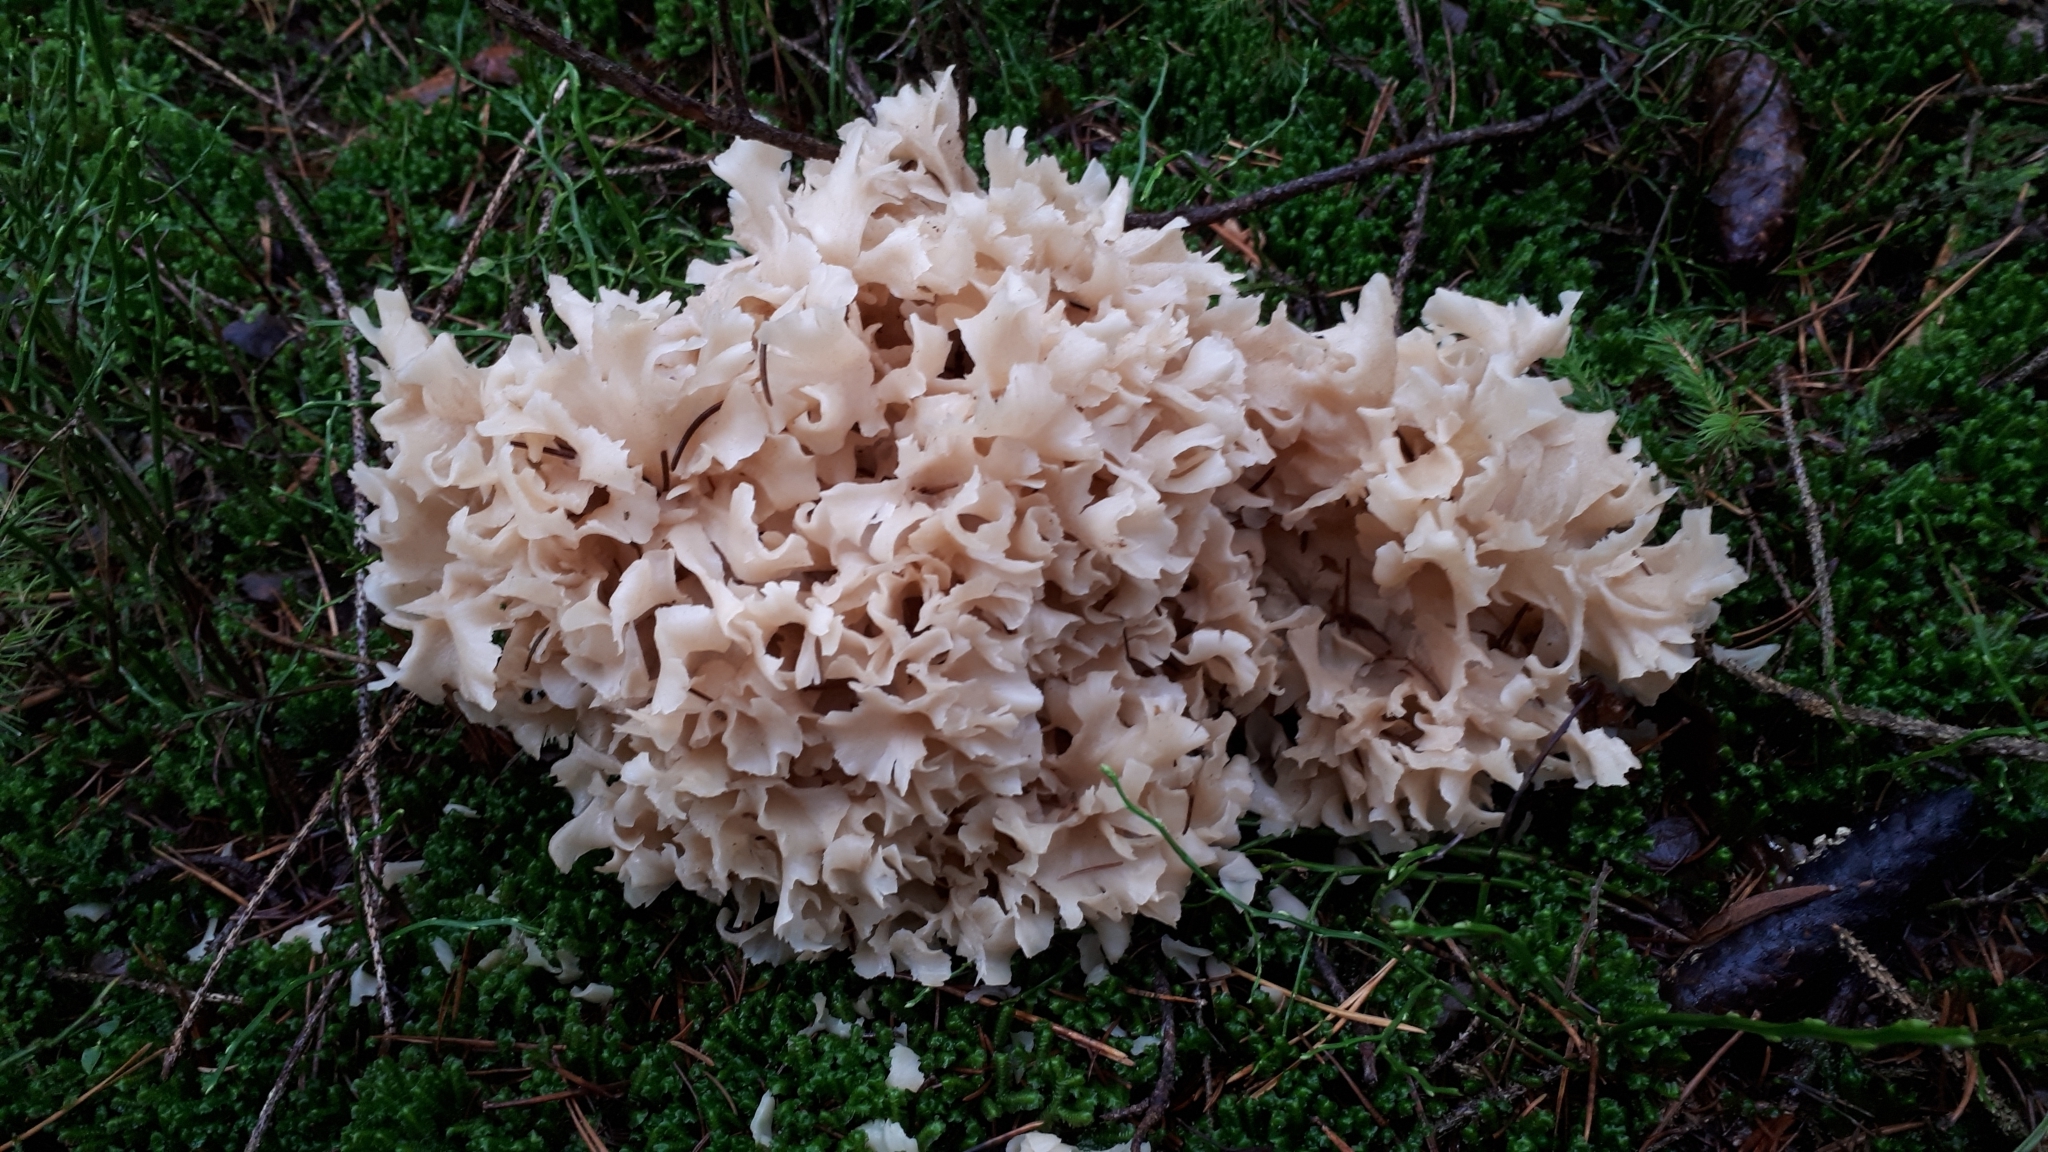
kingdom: Fungi
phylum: Basidiomycota
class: Agaricomycetes
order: Polyporales
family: Sparassidaceae
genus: Sparassis
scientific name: Sparassis crispa
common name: Brain fungus
